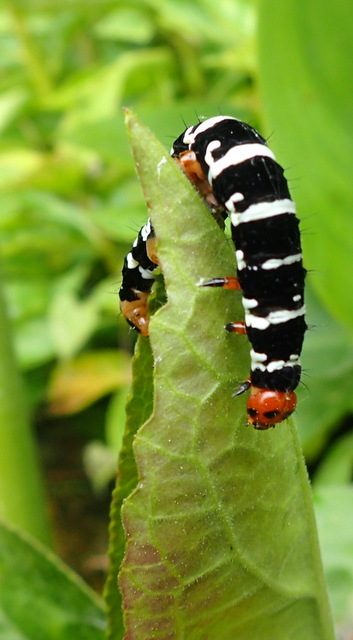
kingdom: Animalia
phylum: Arthropoda
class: Insecta
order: Lepidoptera
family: Noctuidae
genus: Xanthopastis
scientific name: Xanthopastis regnatrix
